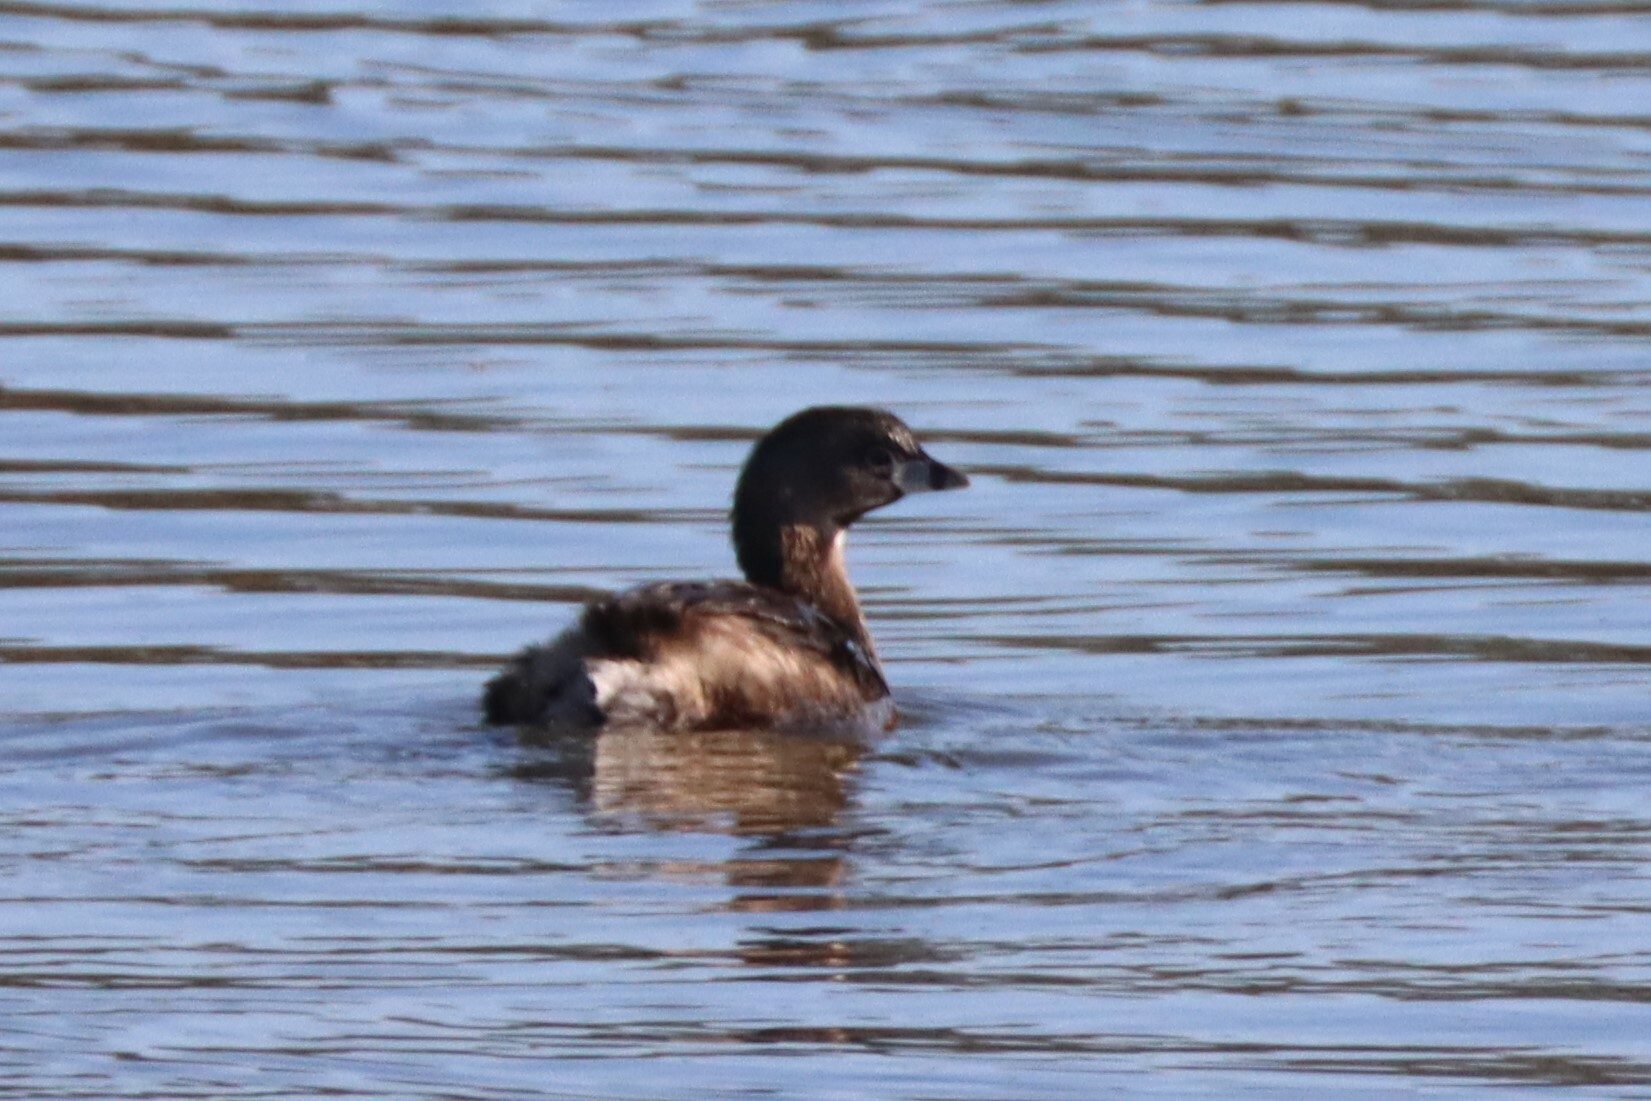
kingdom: Animalia
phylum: Chordata
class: Aves
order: Podicipediformes
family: Podicipedidae
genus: Podilymbus
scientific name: Podilymbus podiceps
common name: Pied-billed grebe
